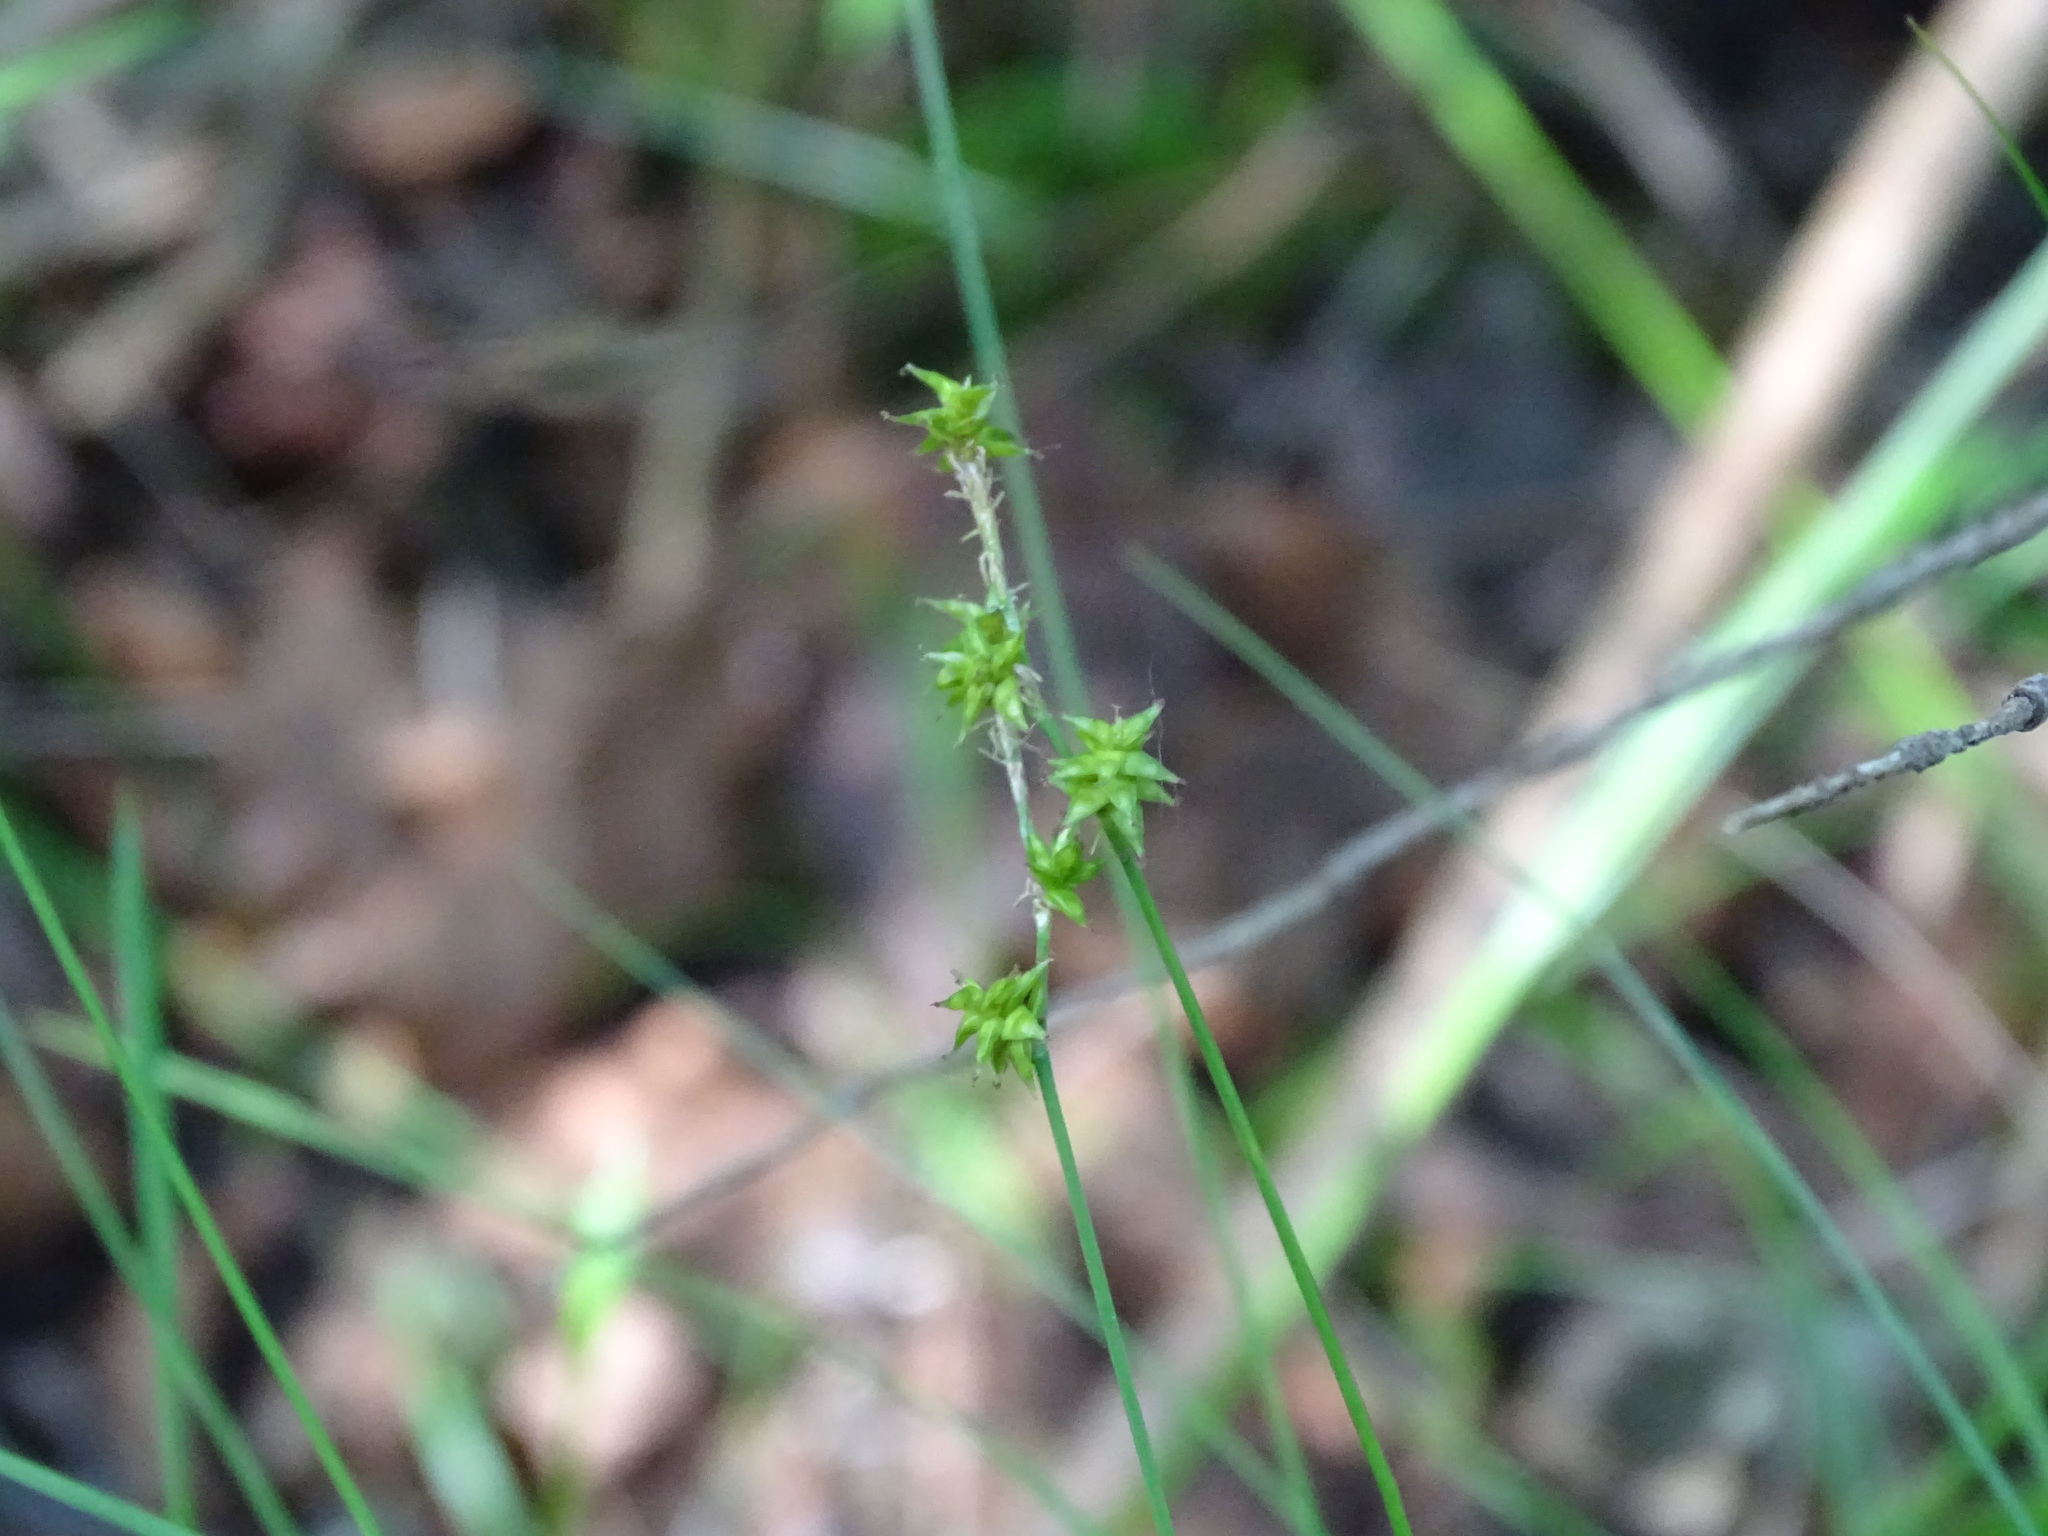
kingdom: Plantae
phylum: Tracheophyta
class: Liliopsida
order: Poales
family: Cyperaceae
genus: Carex
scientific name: Carex interior
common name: Inland sedge
